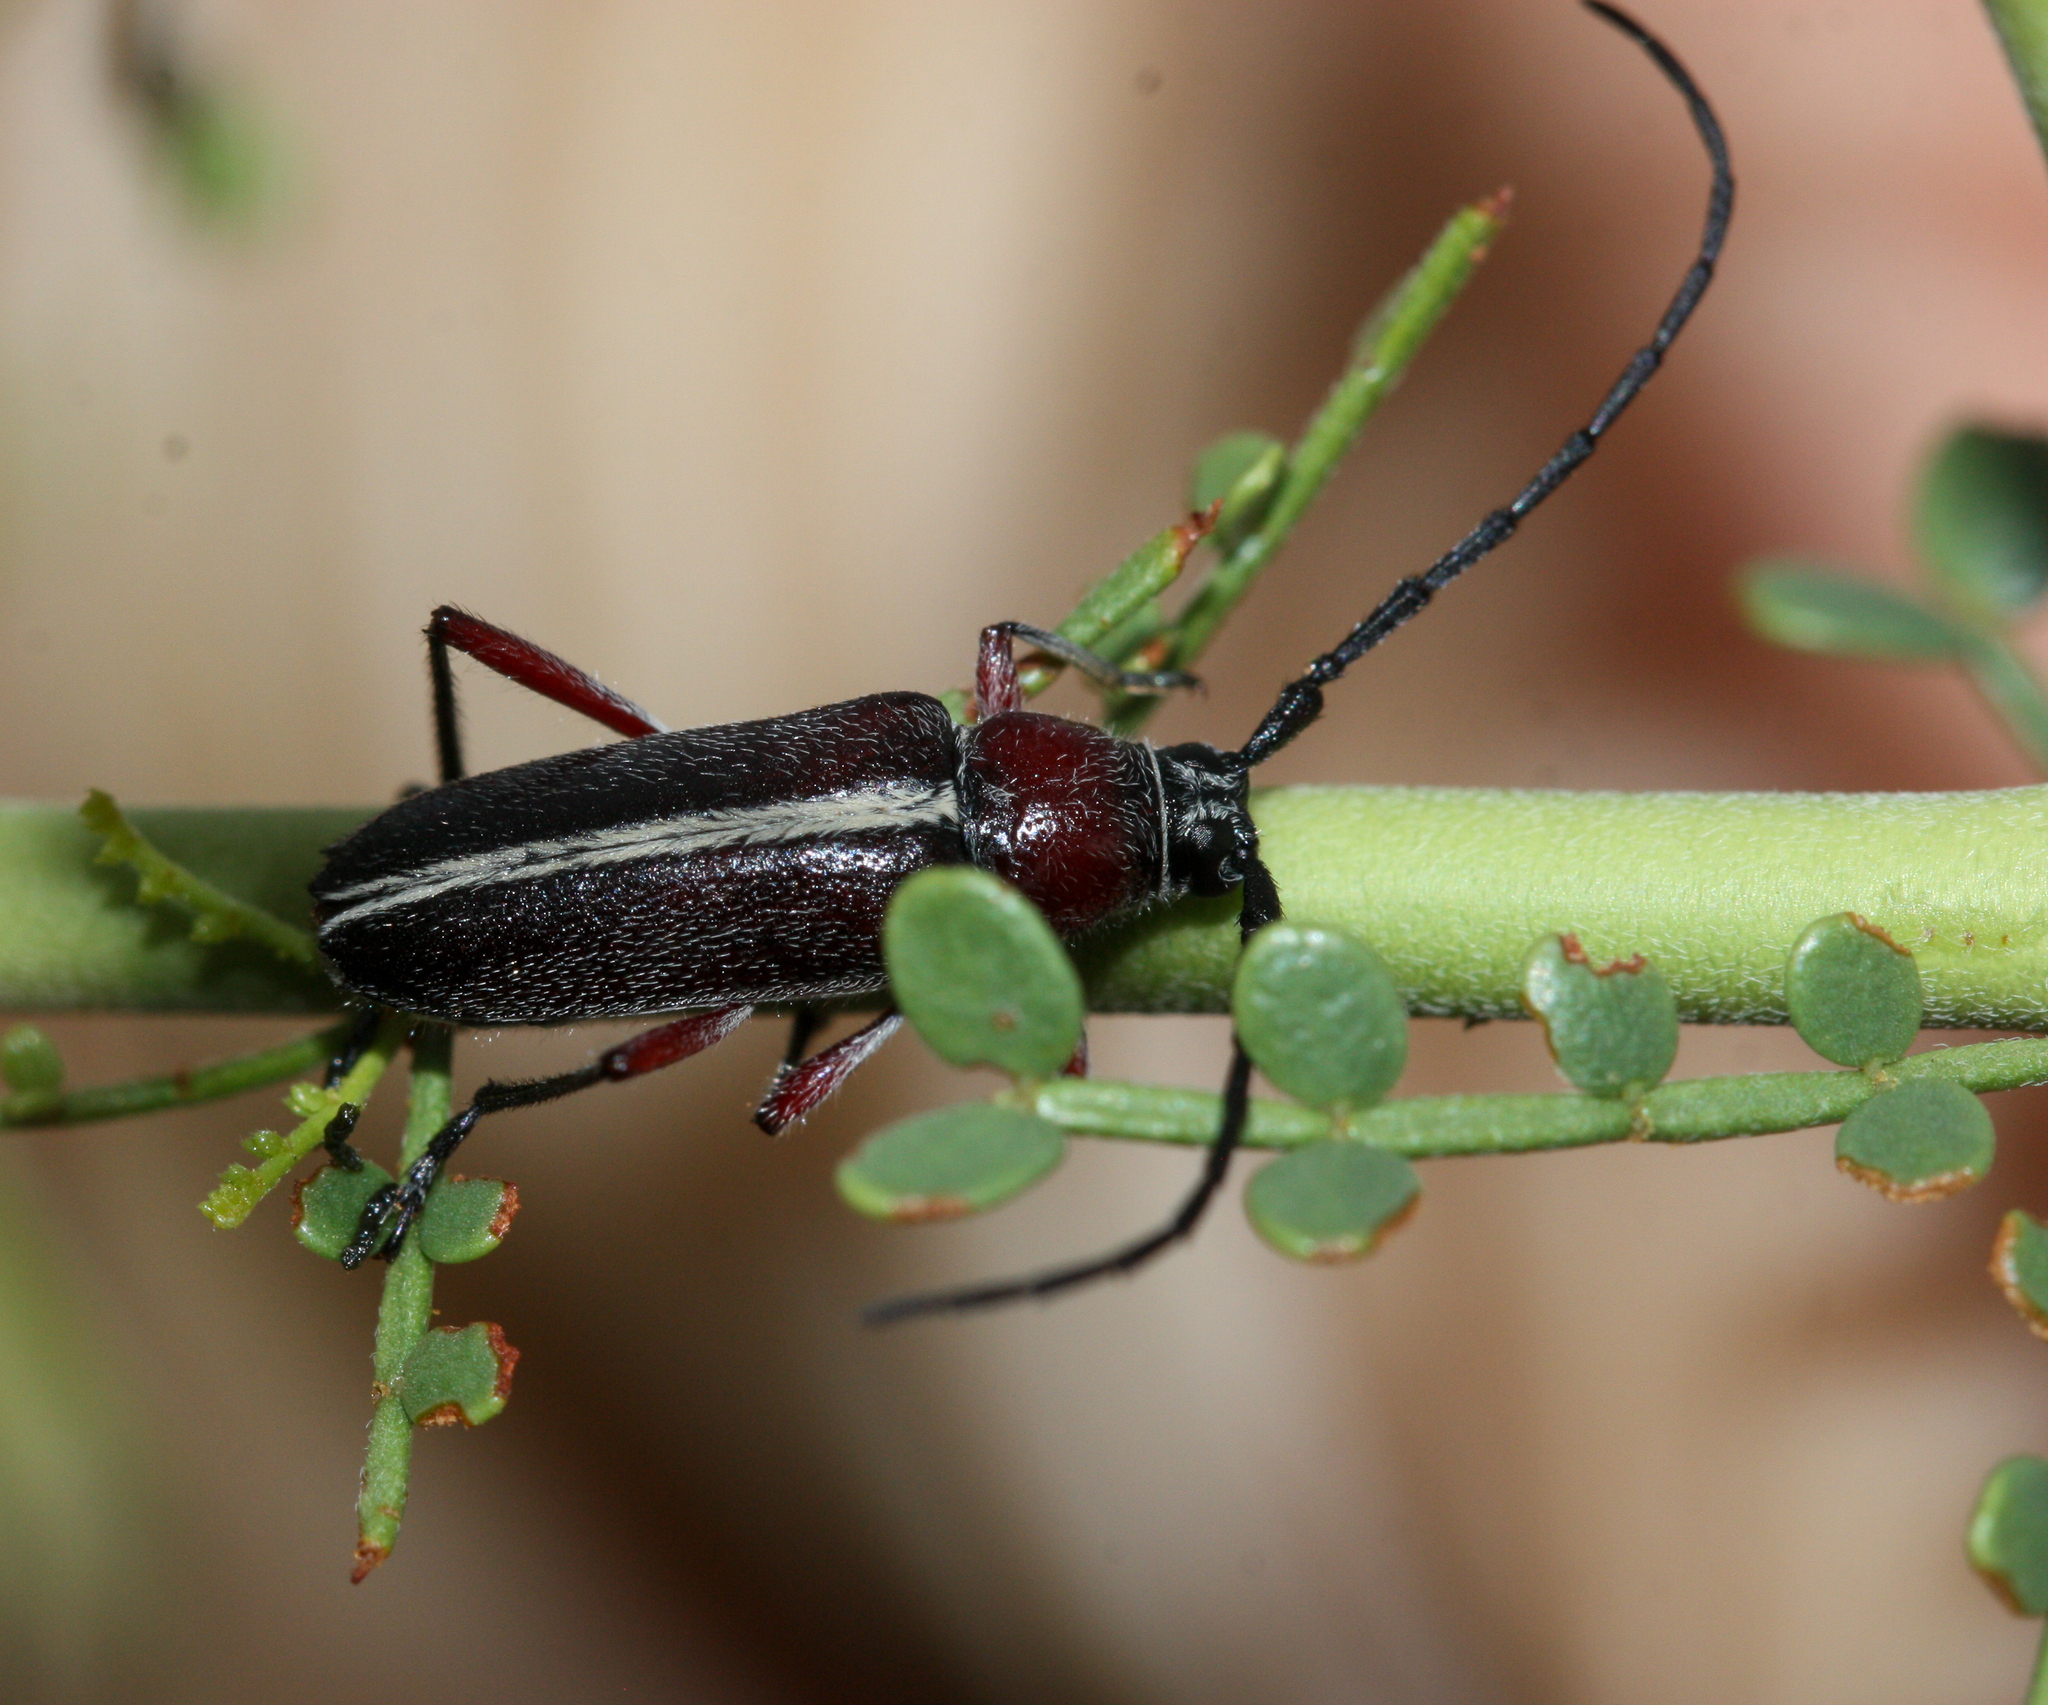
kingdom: Animalia
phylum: Arthropoda
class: Insecta
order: Coleoptera
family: Cerambycidae
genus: Plionoma
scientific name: Plionoma suturalis
